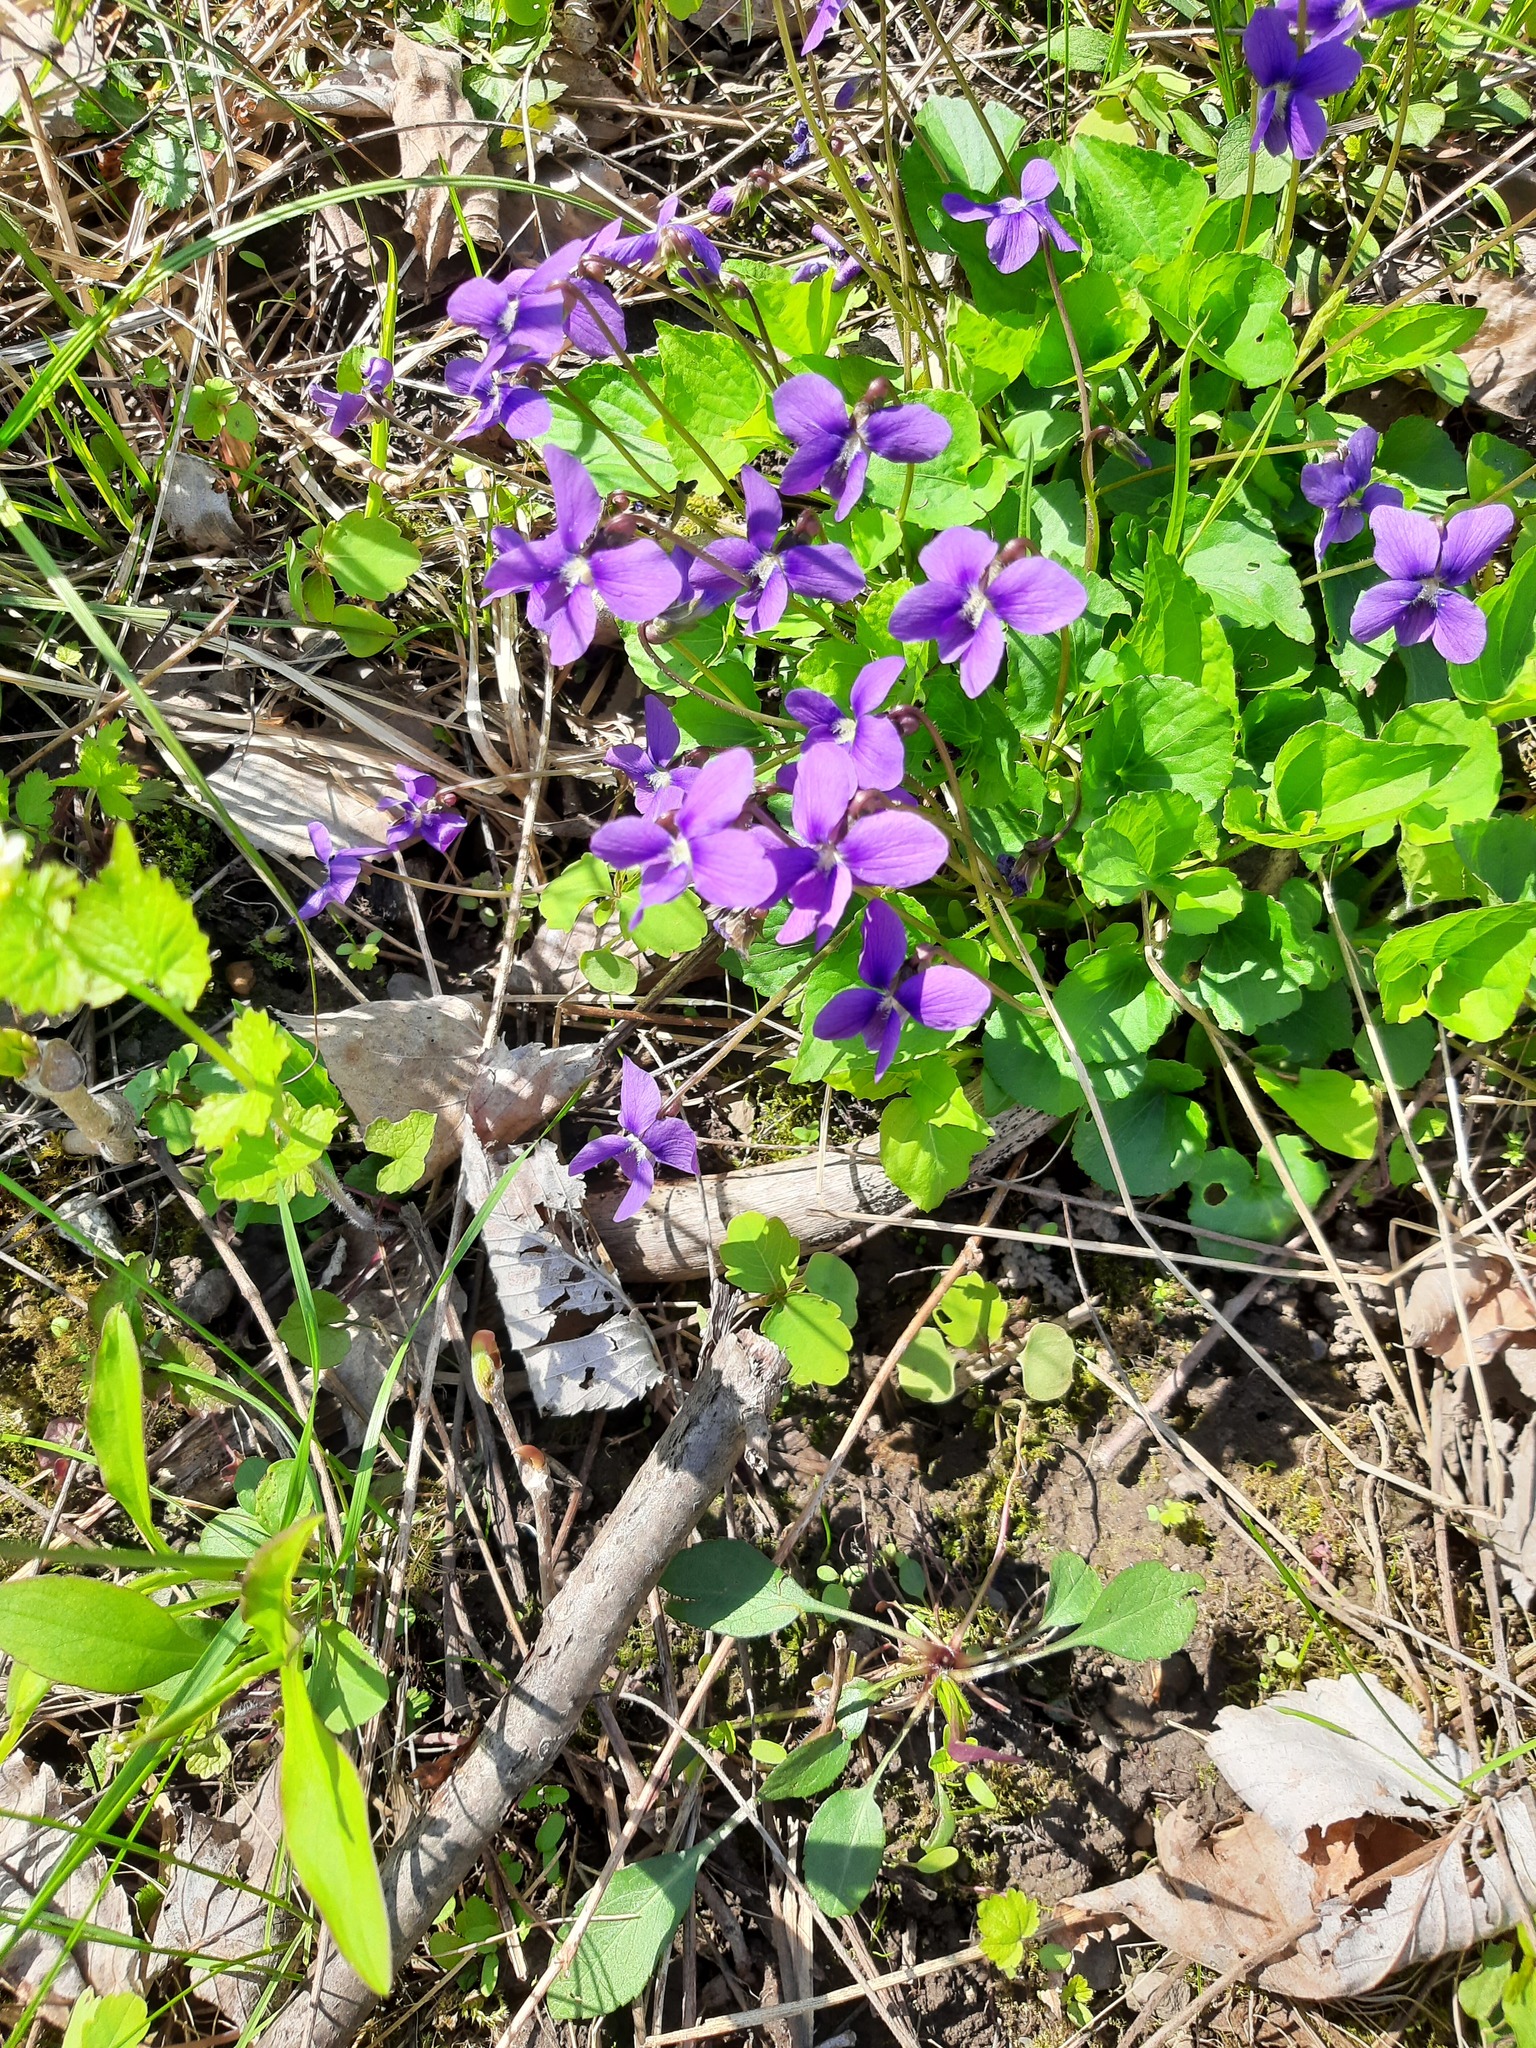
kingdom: Plantae
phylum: Tracheophyta
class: Magnoliopsida
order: Malpighiales
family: Violaceae
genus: Viola
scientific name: Viola sororia
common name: Dooryard violet
